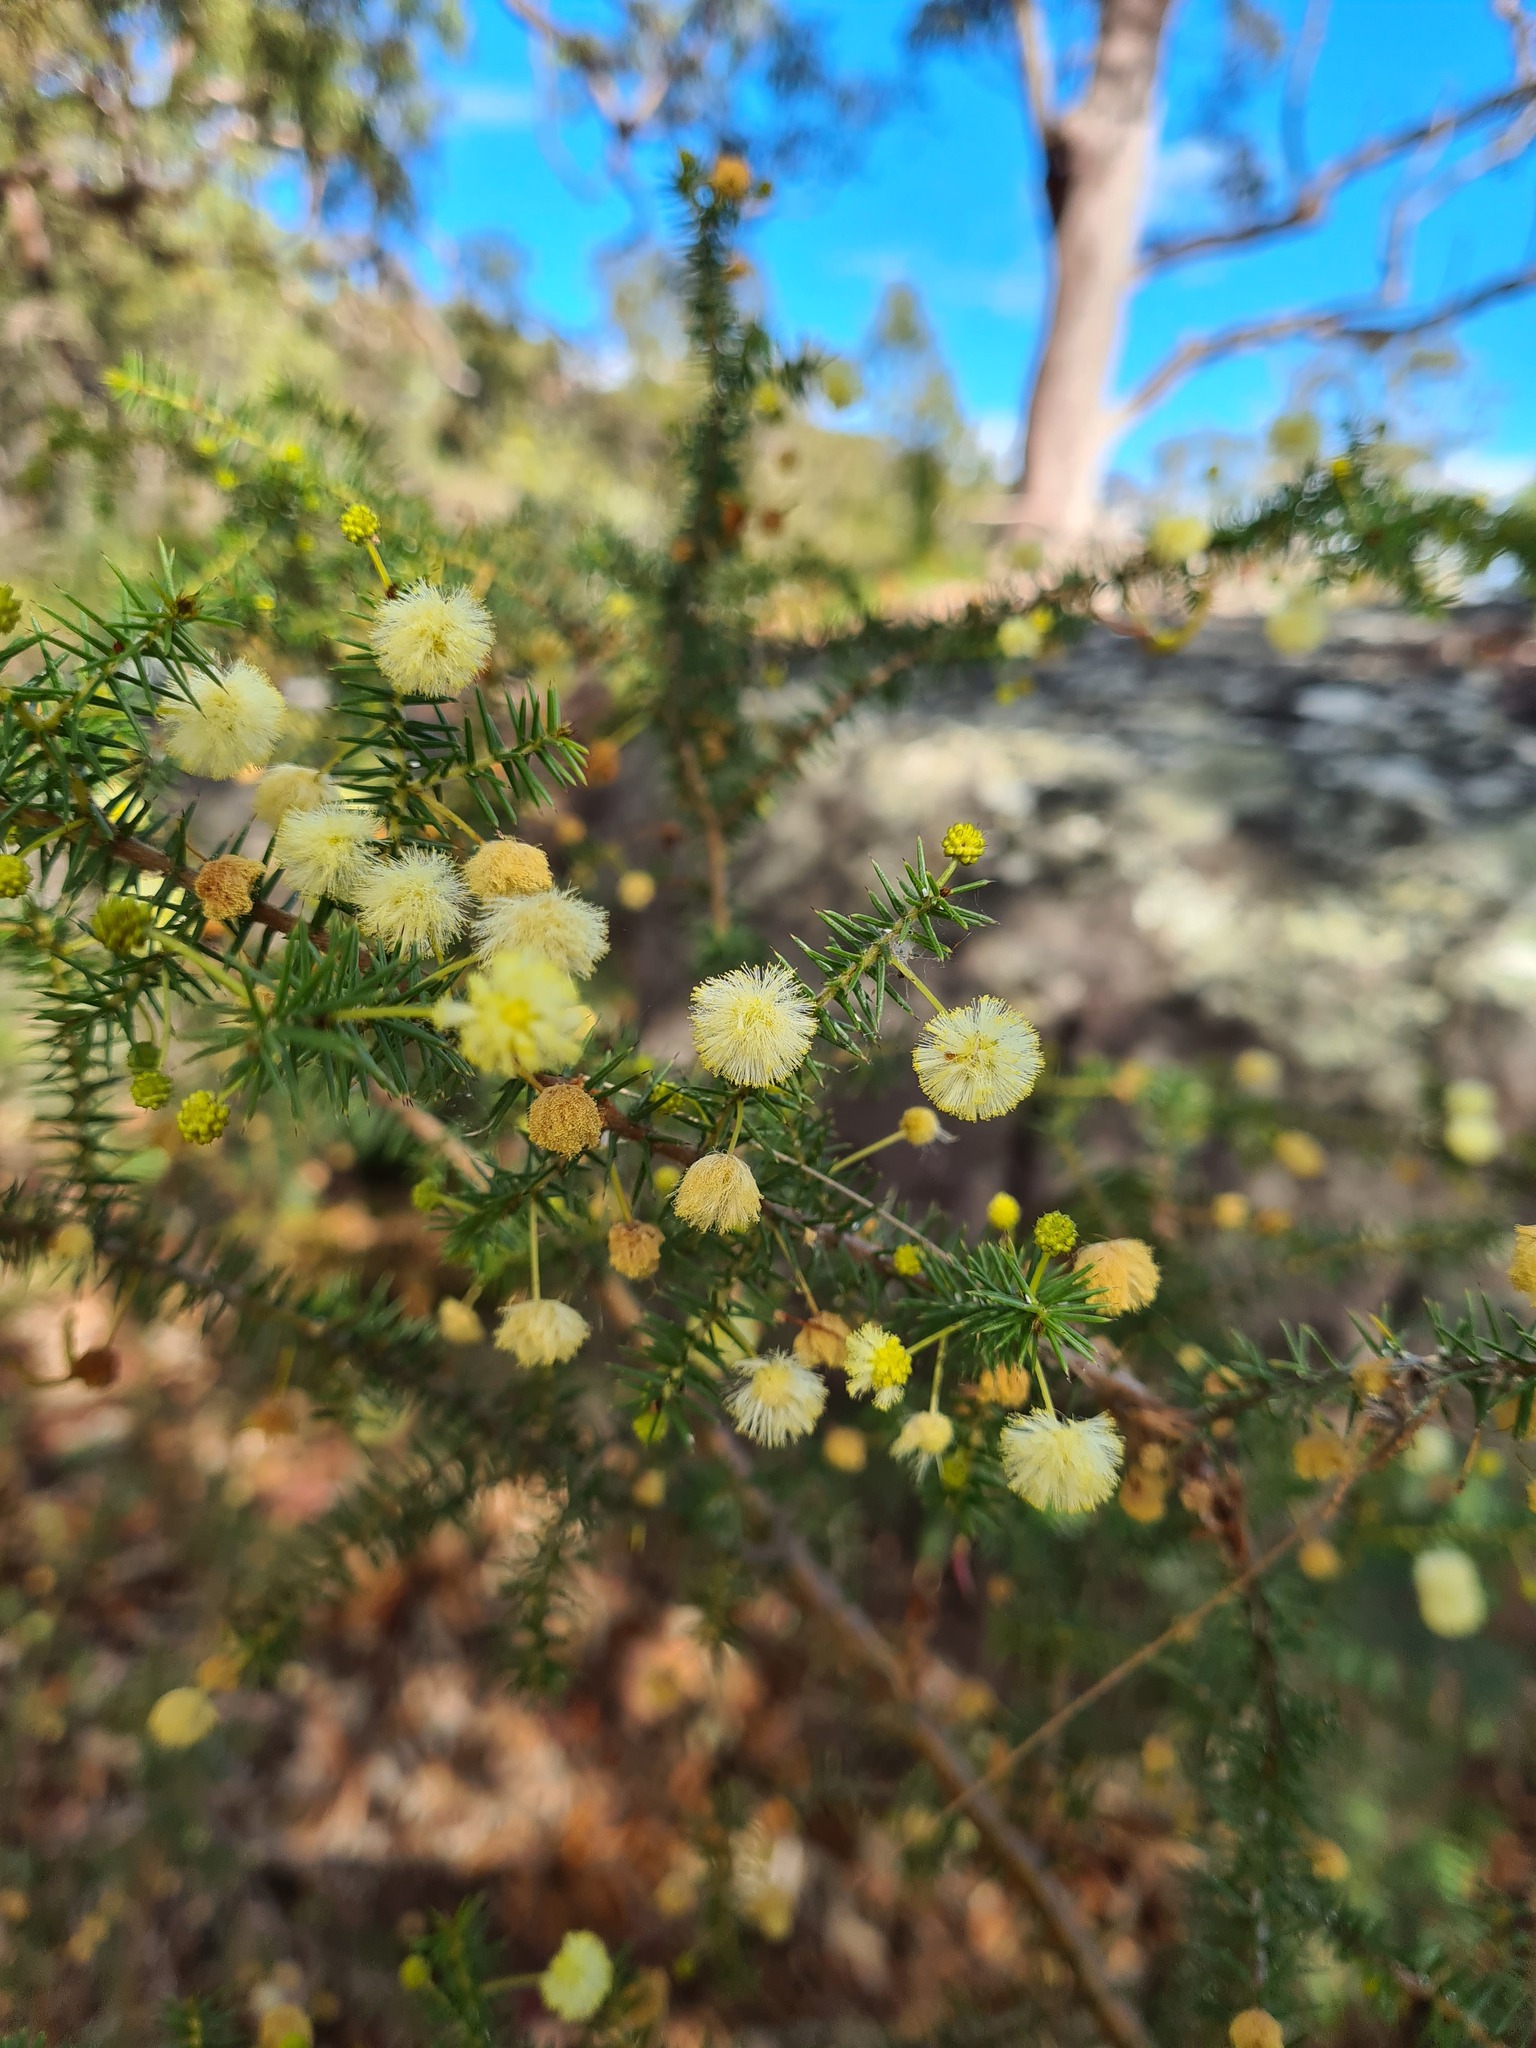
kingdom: Plantae
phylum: Tracheophyta
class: Magnoliopsida
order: Fabales
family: Fabaceae
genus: Acacia
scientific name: Acacia ulicifolia
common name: Juniper wattle
